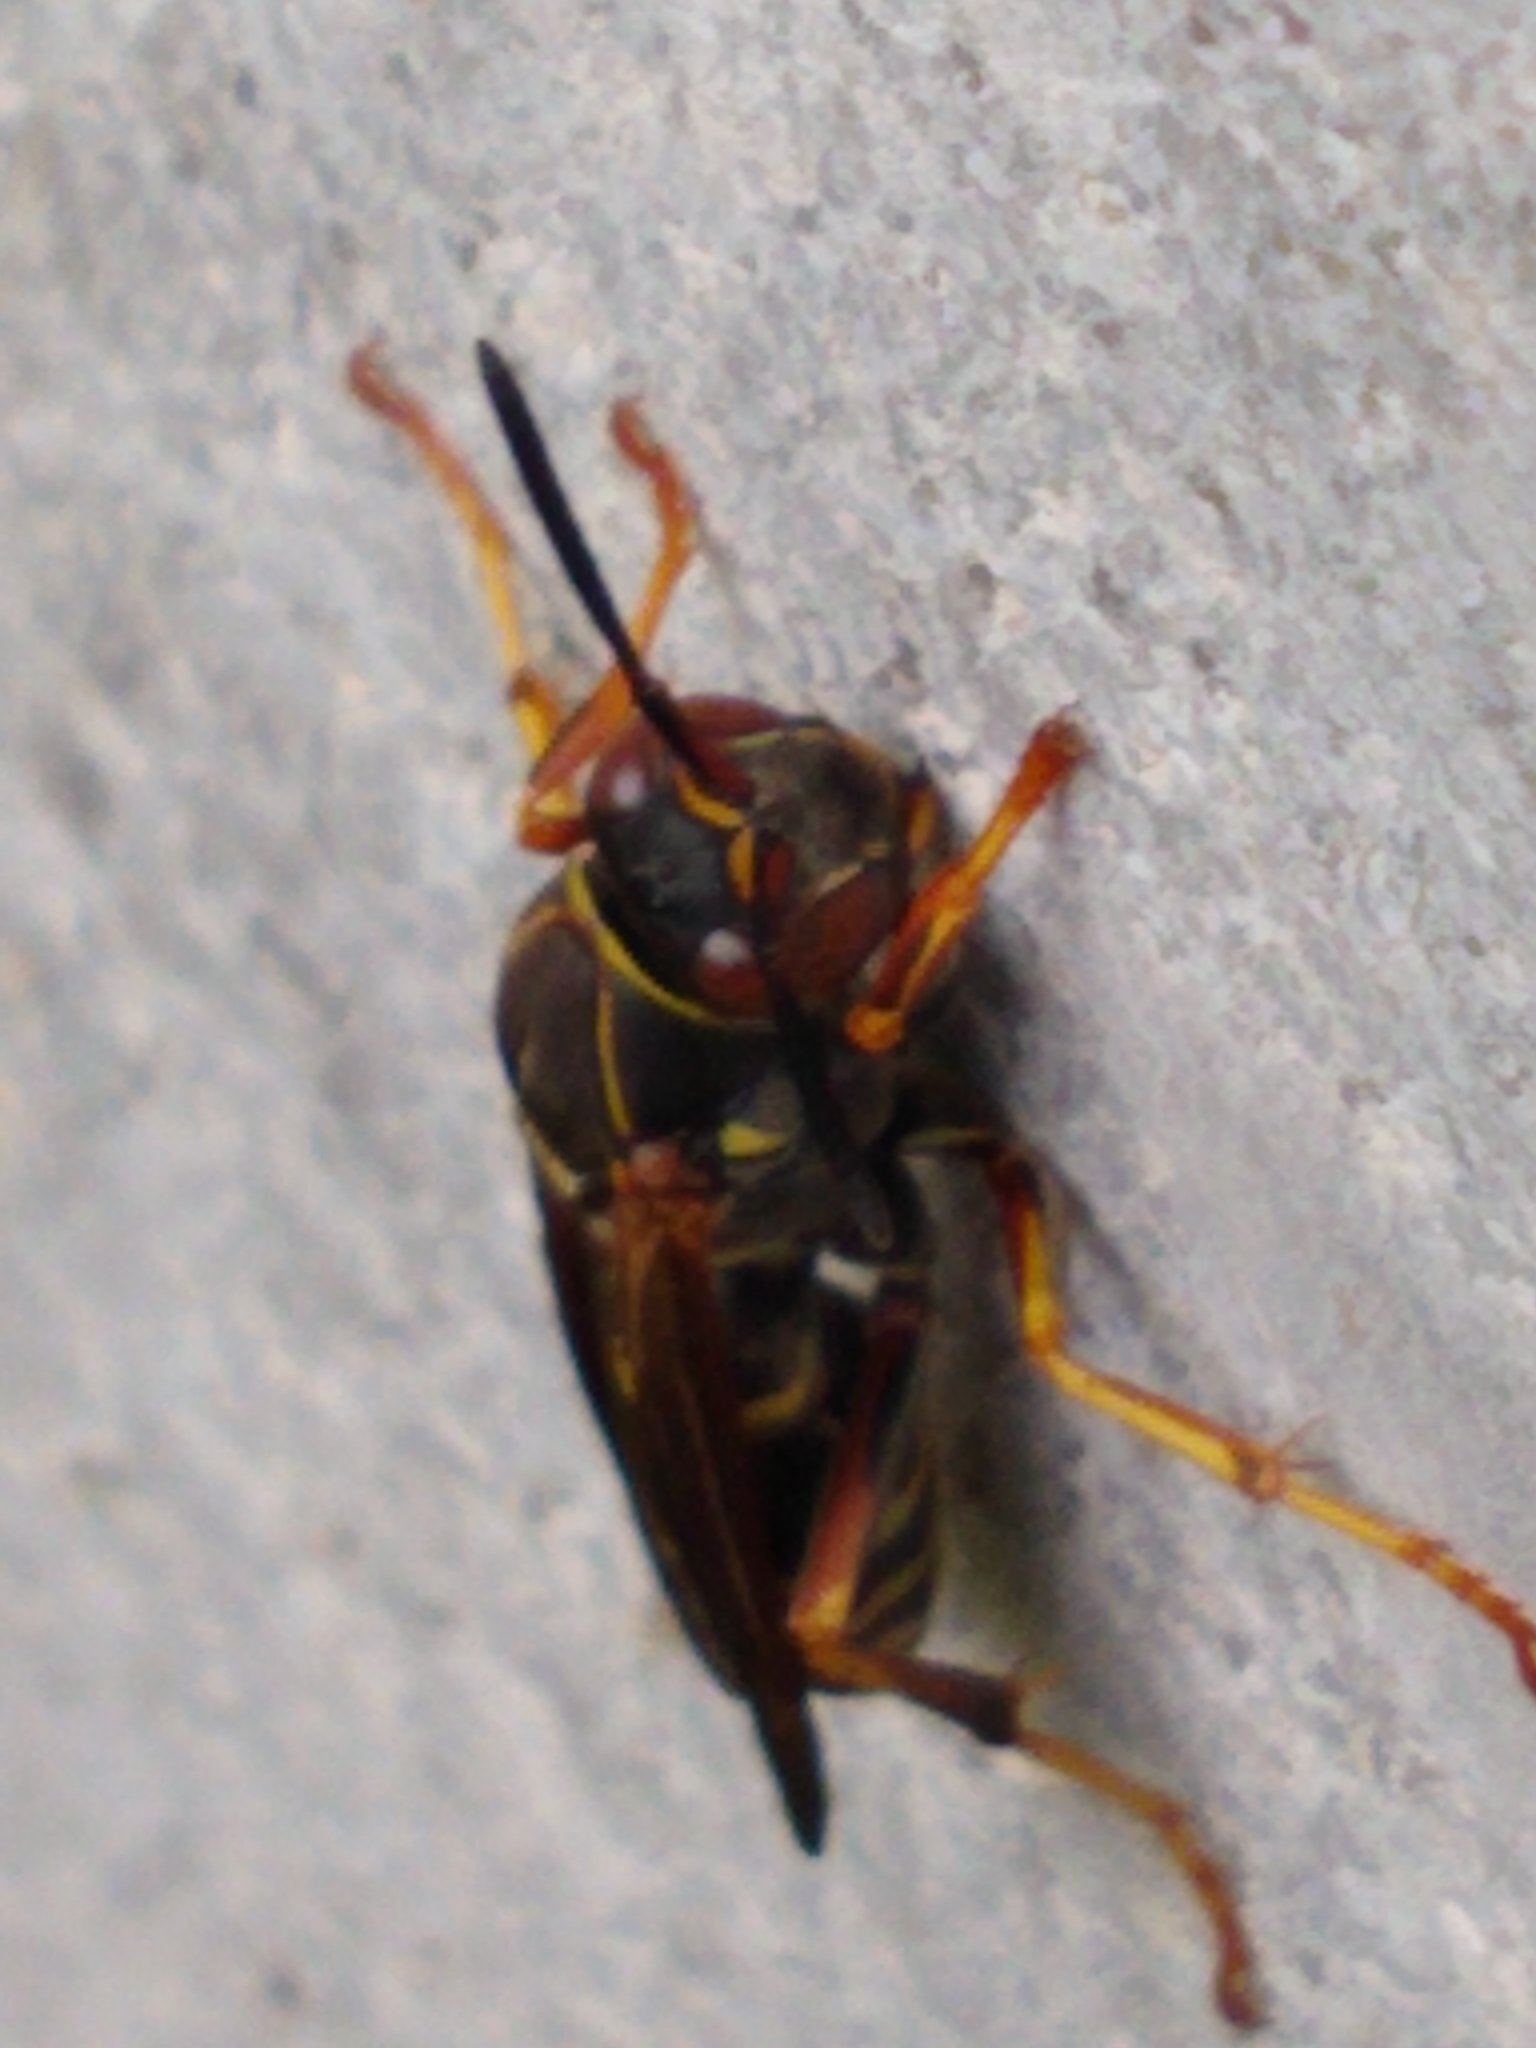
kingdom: Animalia
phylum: Arthropoda
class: Insecta
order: Hymenoptera
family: Eumenidae
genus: Polistes
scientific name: Polistes fuscatus
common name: Dark paper wasp
